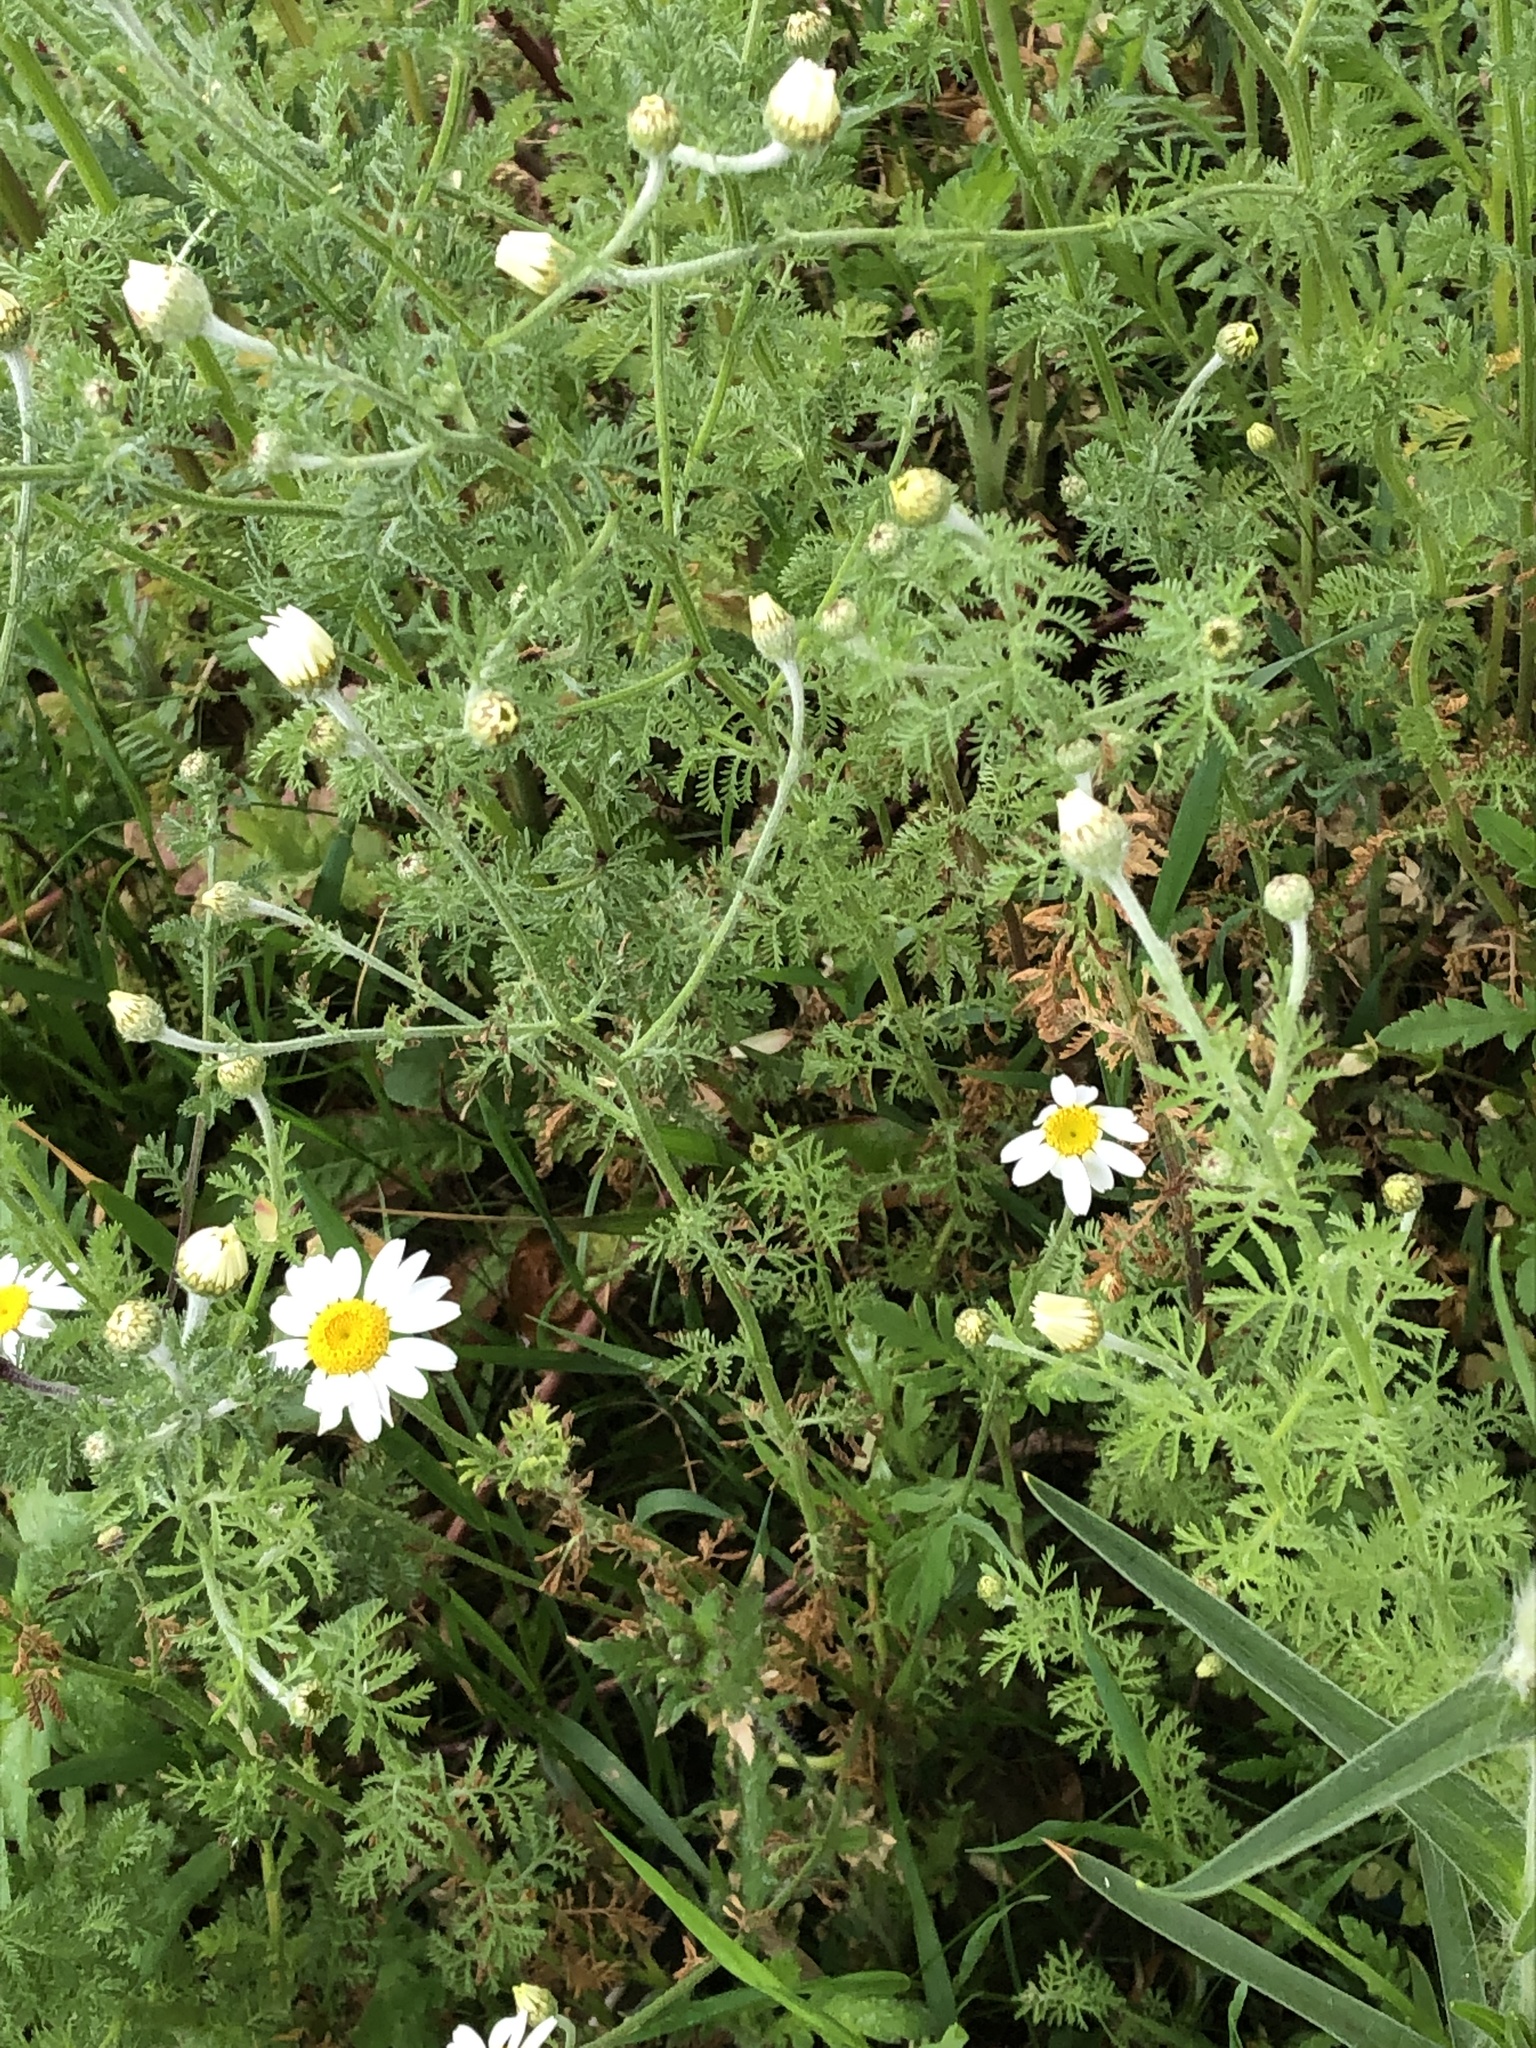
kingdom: Plantae
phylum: Tracheophyta
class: Magnoliopsida
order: Asterales
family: Asteraceae
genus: Cota
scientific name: Cota austriaca
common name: Austrian chamomile
